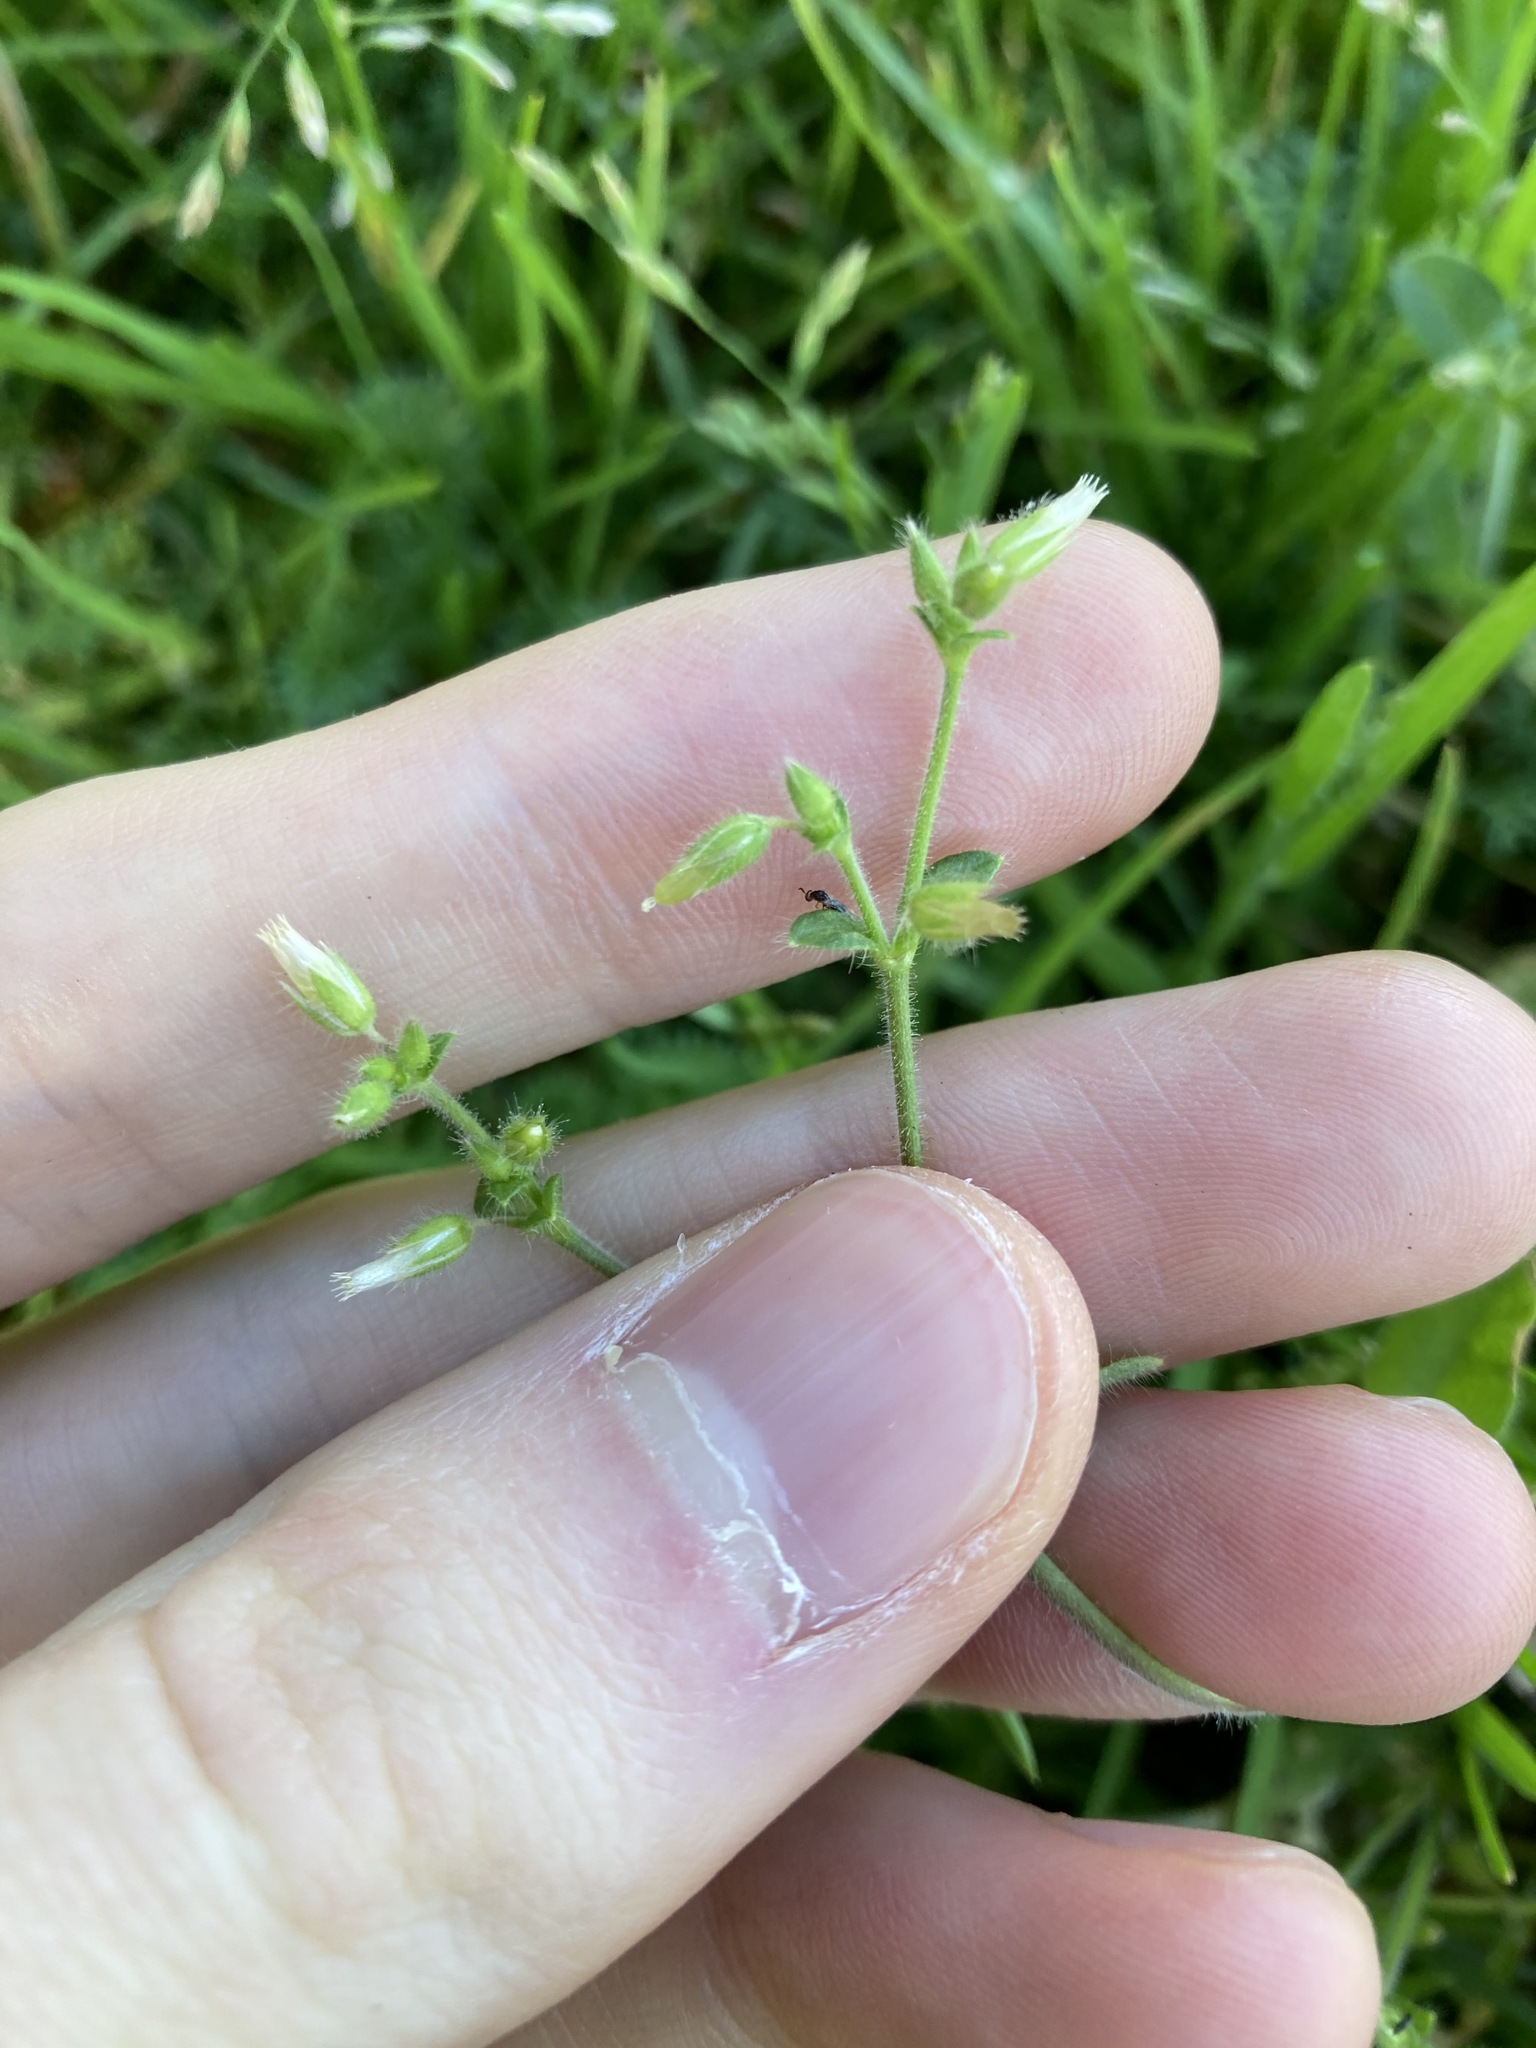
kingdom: Plantae
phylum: Tracheophyta
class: Magnoliopsida
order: Caryophyllales
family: Caryophyllaceae
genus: Cerastium
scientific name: Cerastium glomeratum
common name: Sticky chickweed
